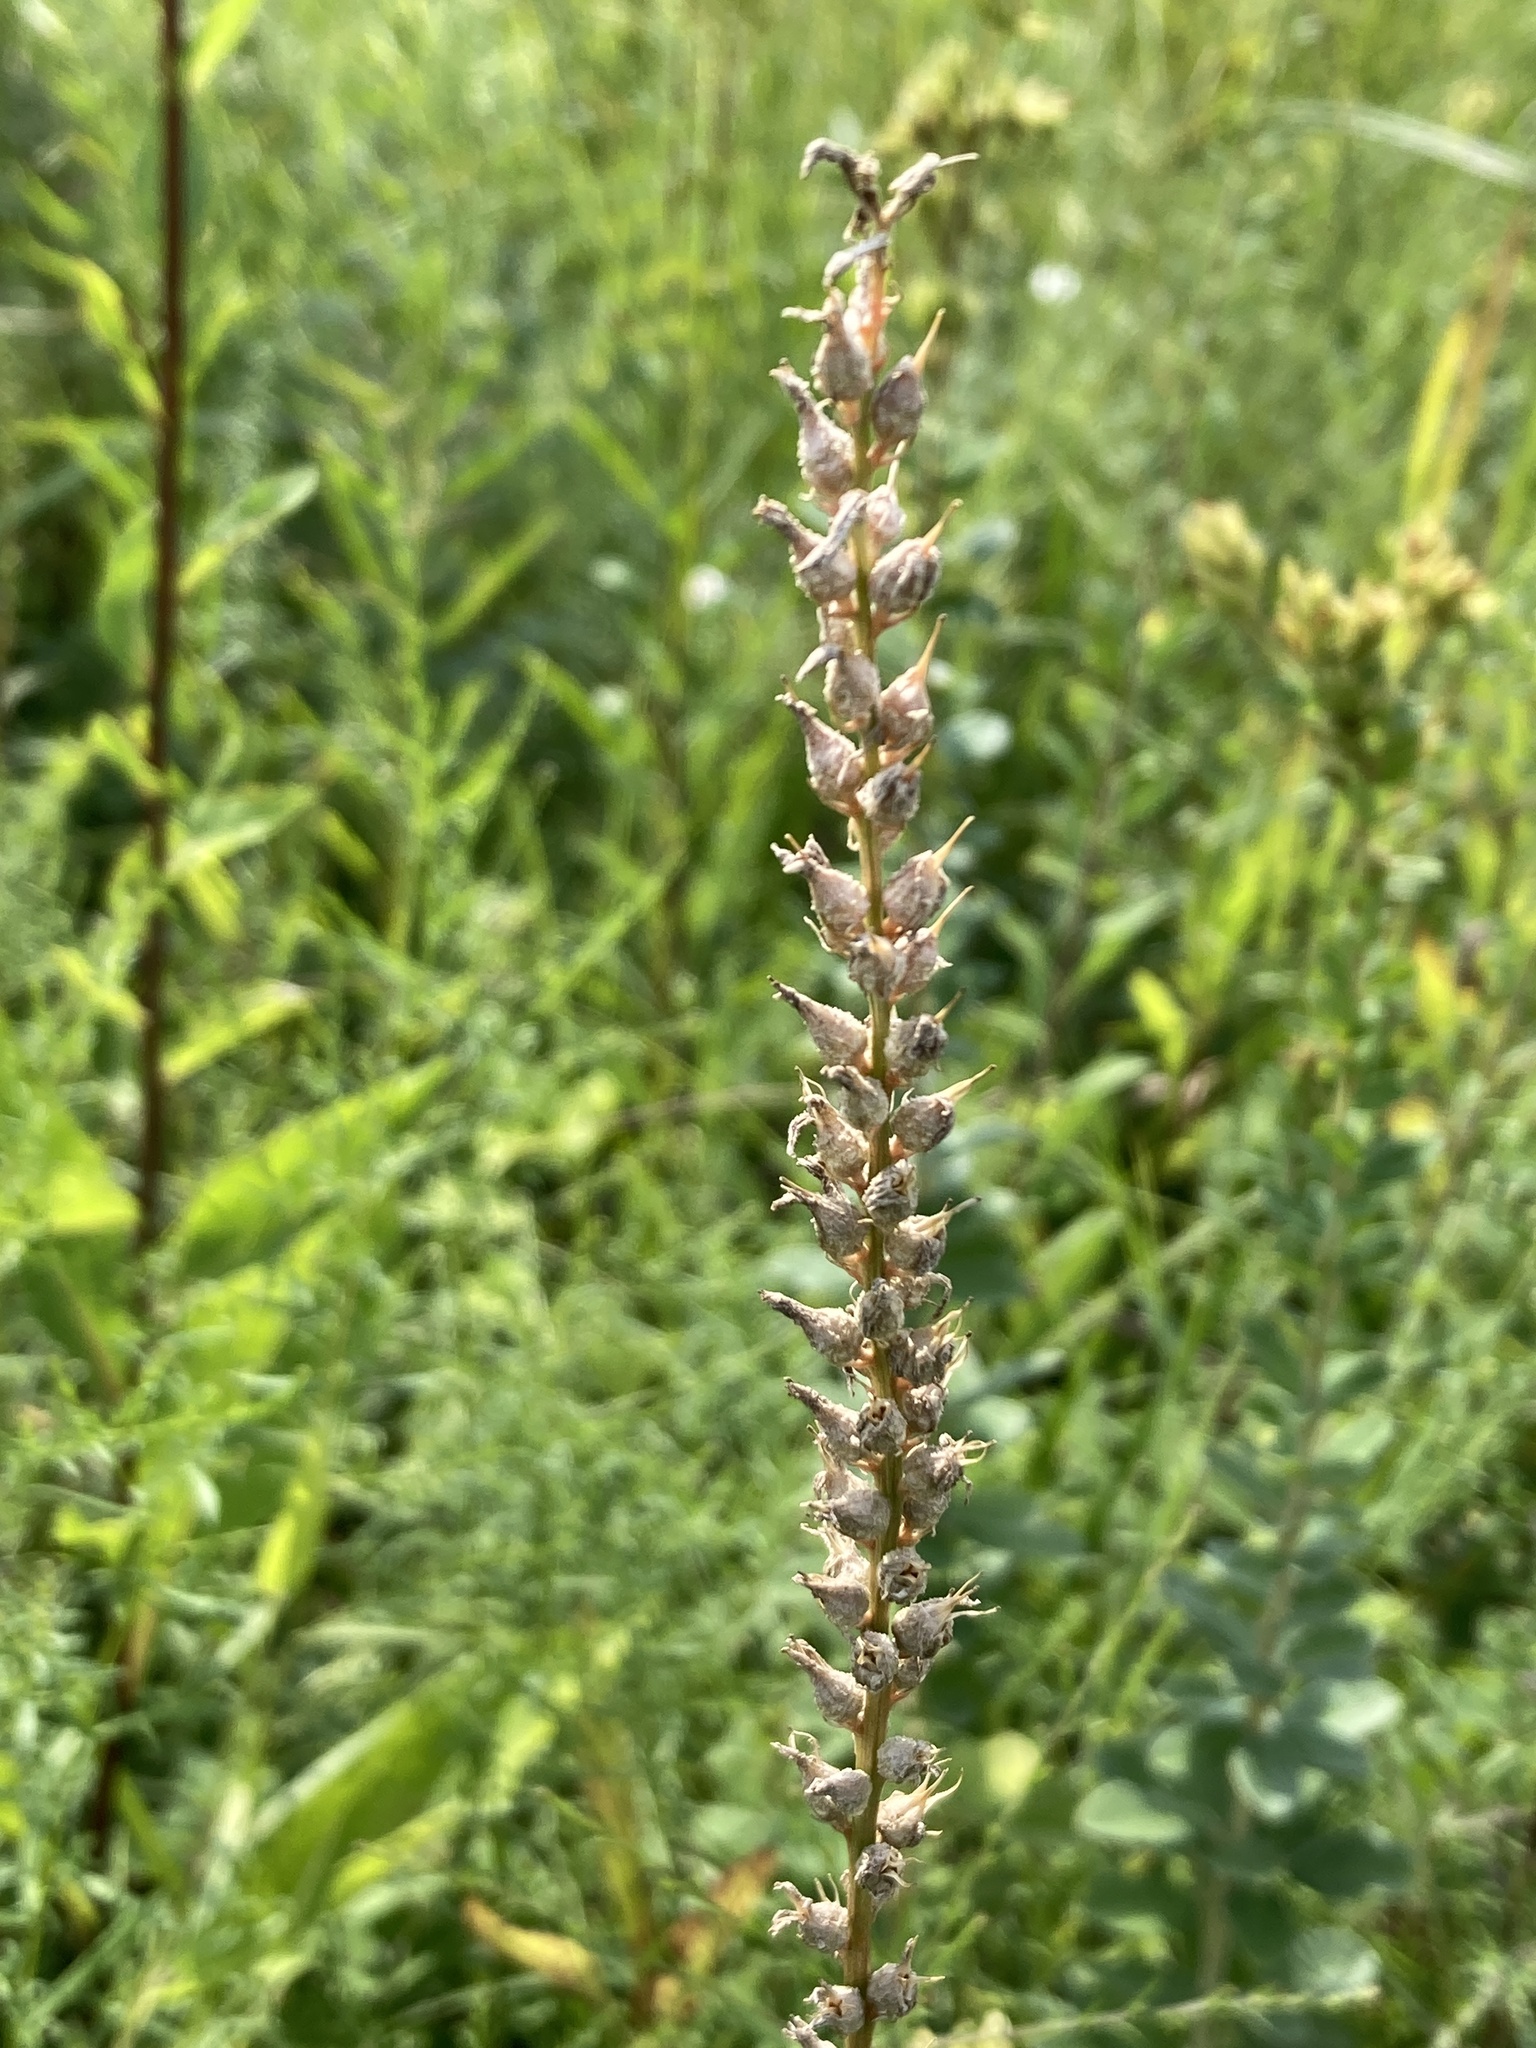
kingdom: Plantae
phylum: Tracheophyta
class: Liliopsida
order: Dioscoreales
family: Nartheciaceae
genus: Aletris
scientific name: Aletris farinosa
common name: Colicroot
